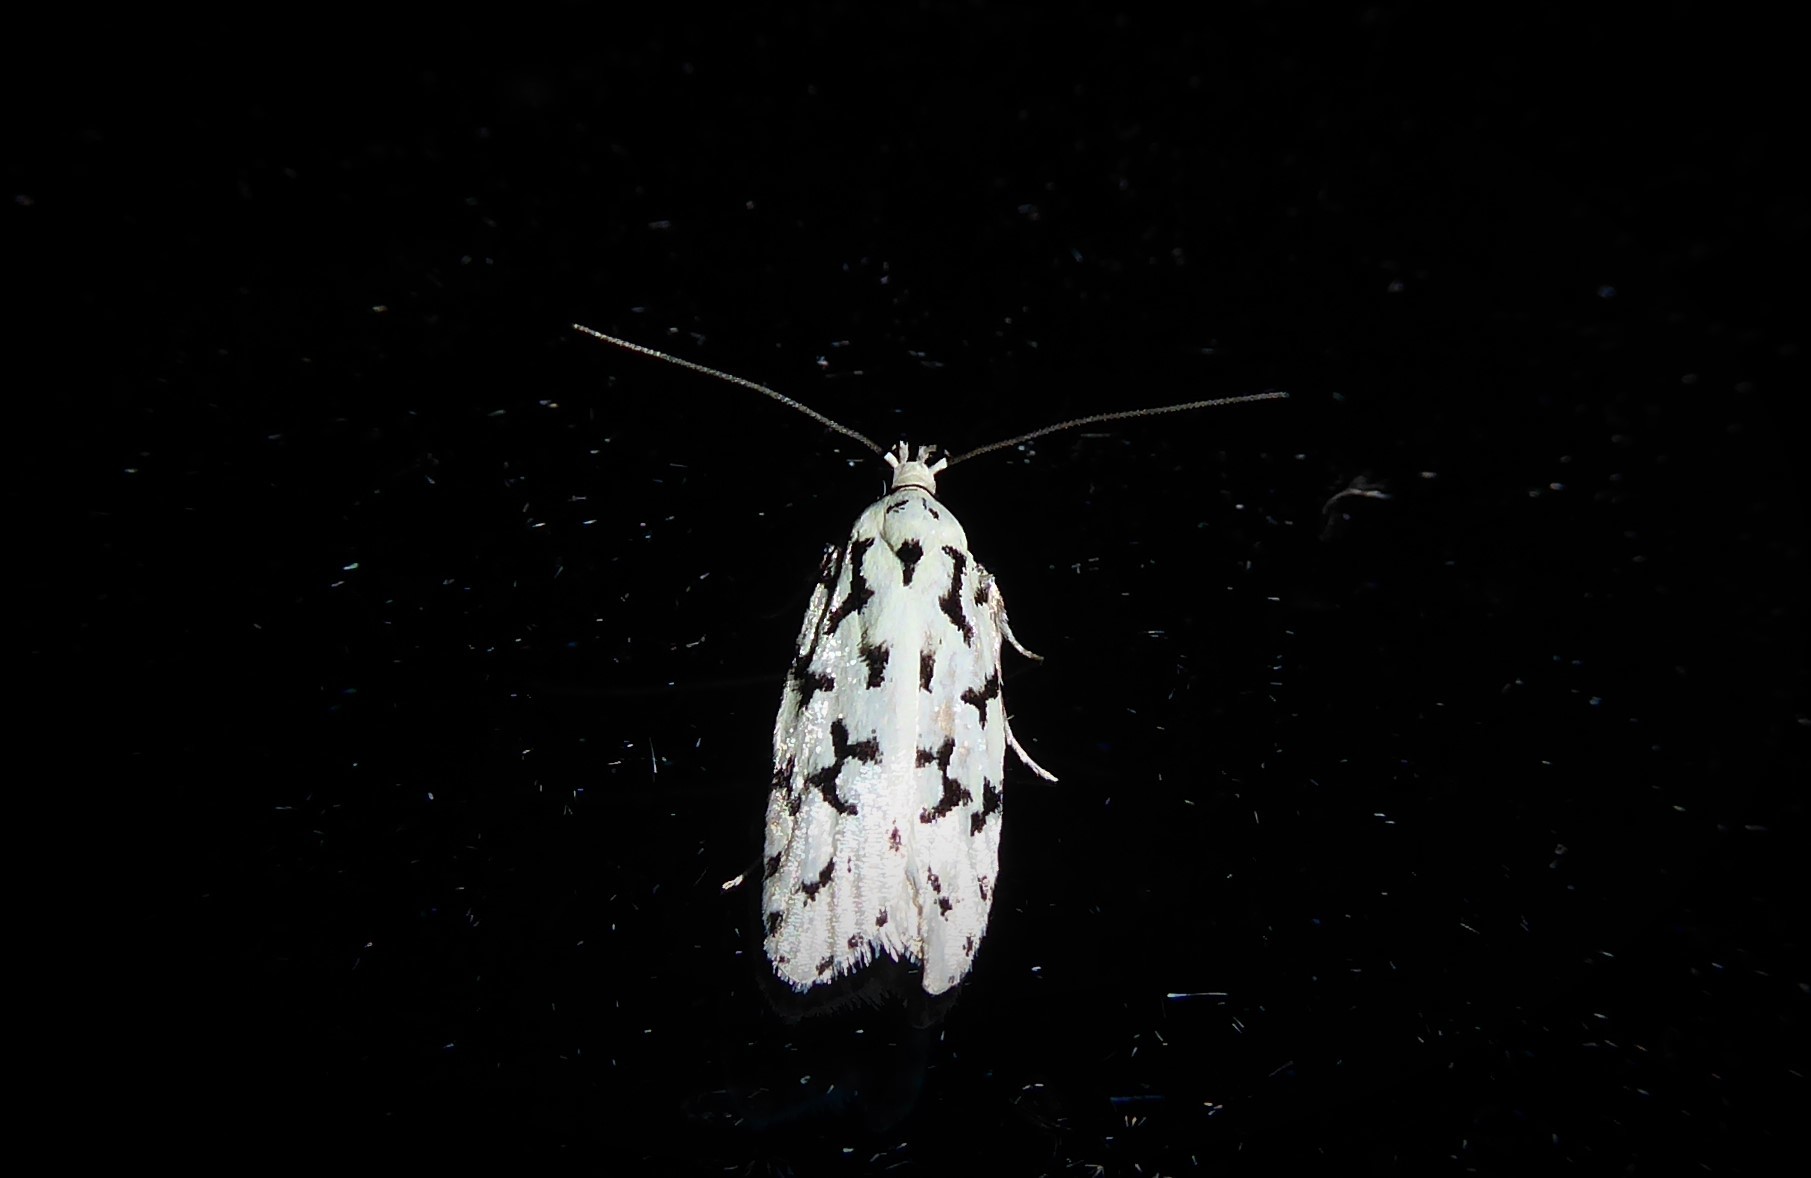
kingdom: Animalia
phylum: Arthropoda
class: Insecta
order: Lepidoptera
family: Oecophoridae
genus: Izatha
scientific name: Izatha huttoni
